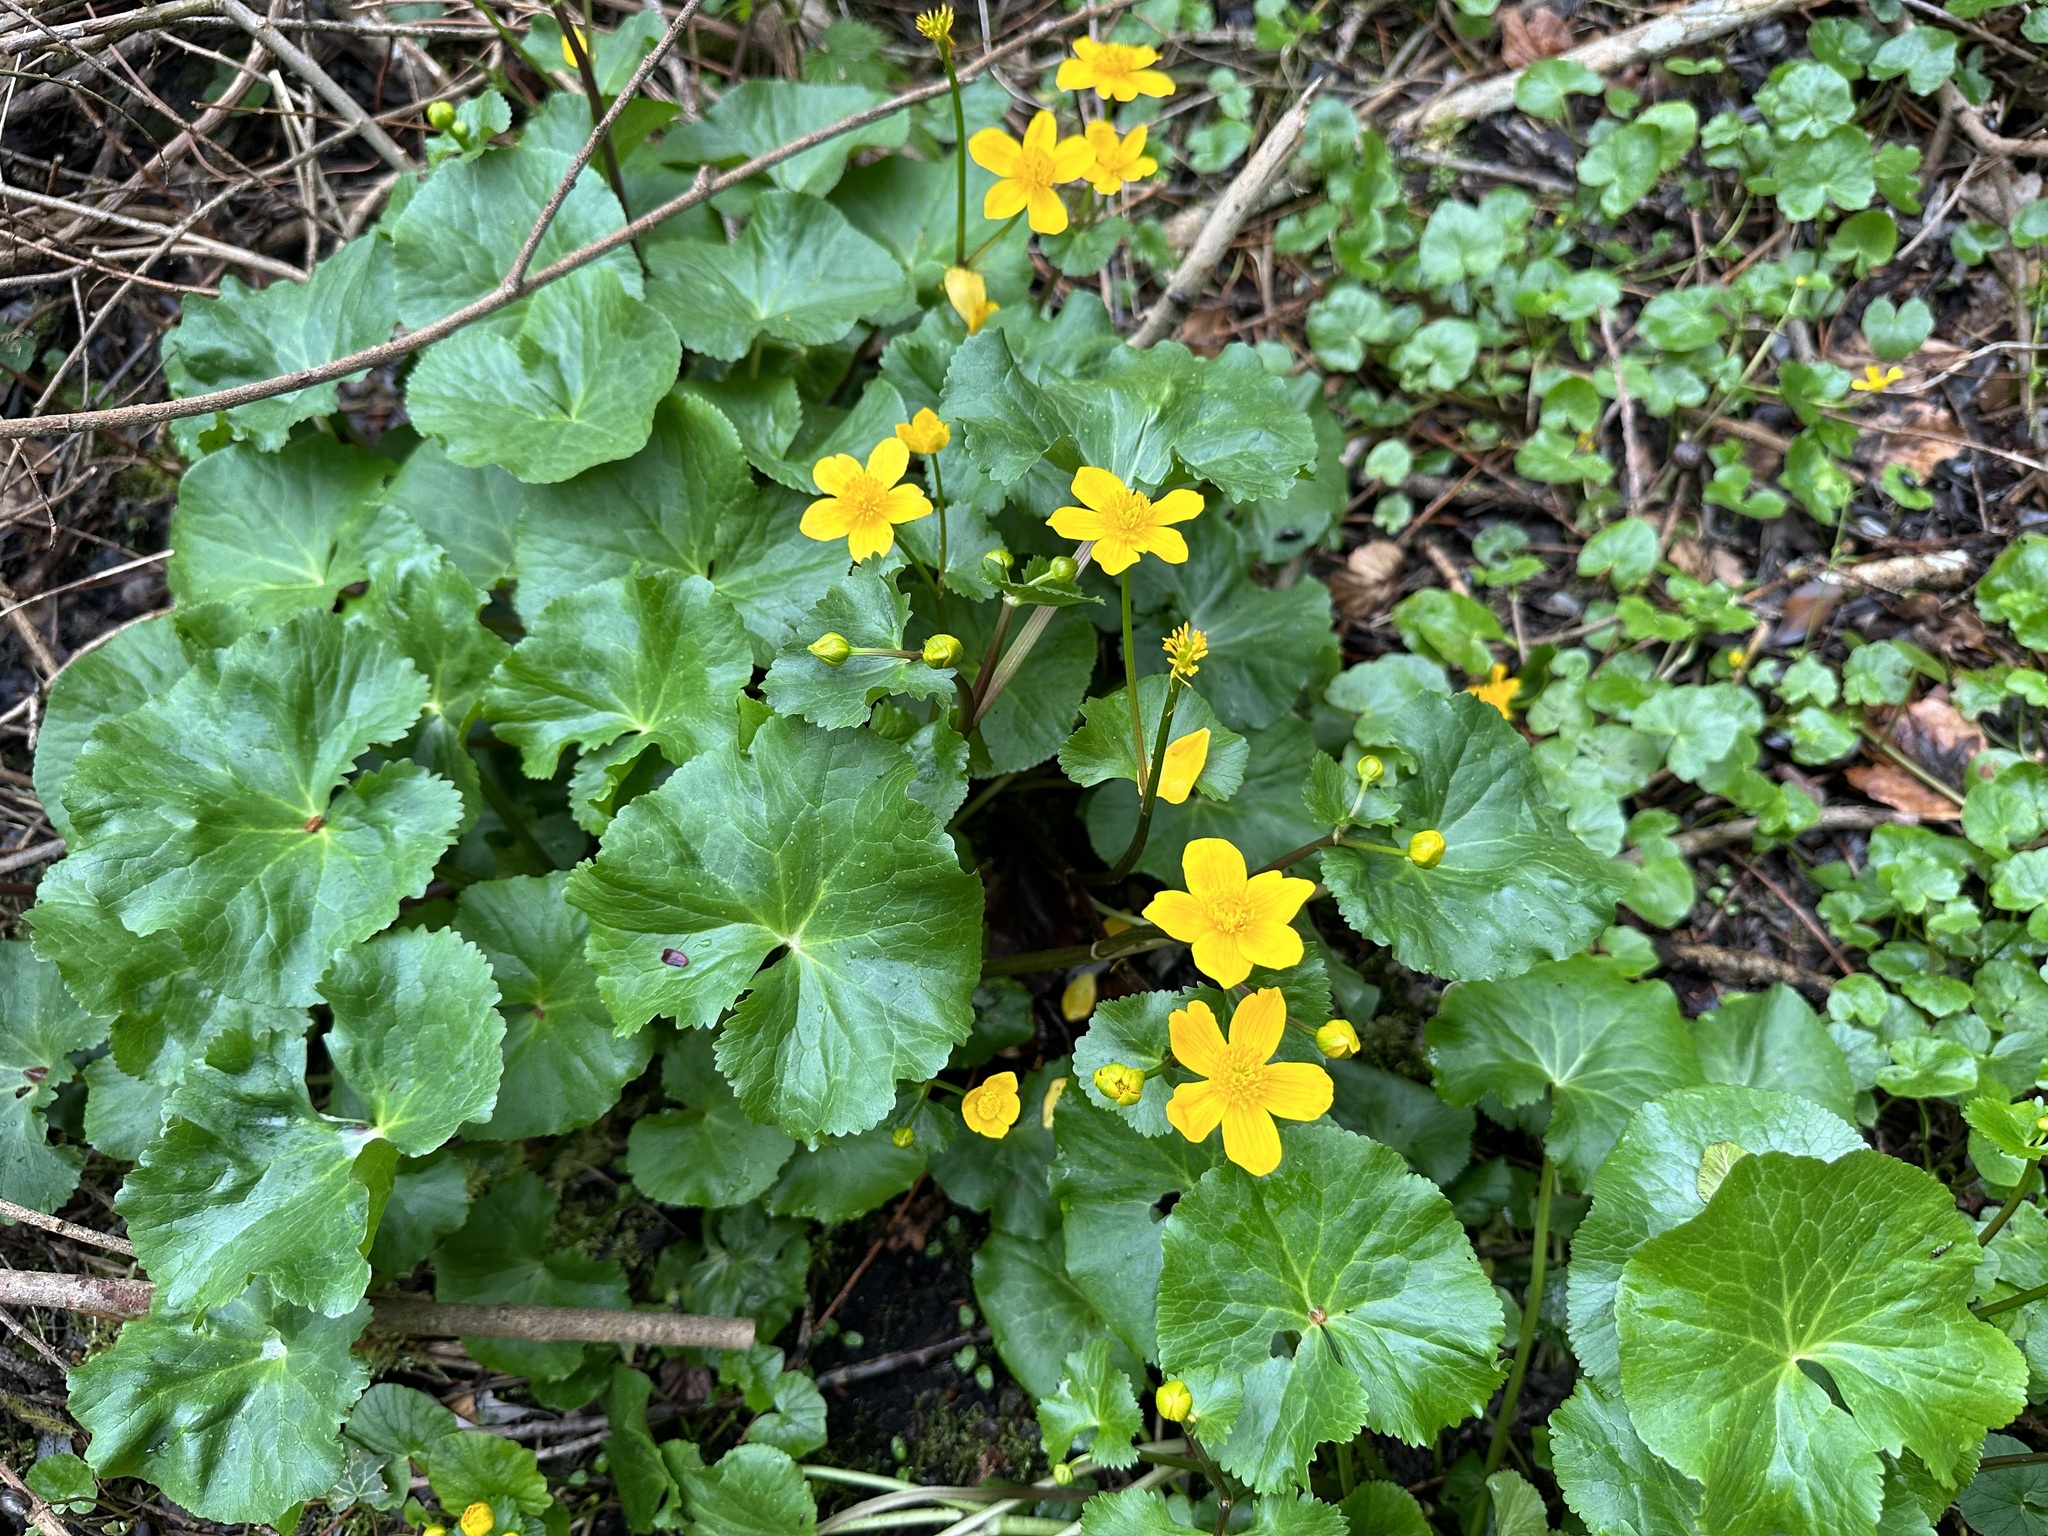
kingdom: Plantae
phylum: Tracheophyta
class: Magnoliopsida
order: Ranunculales
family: Ranunculaceae
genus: Caltha
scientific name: Caltha palustris
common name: Marsh marigold
